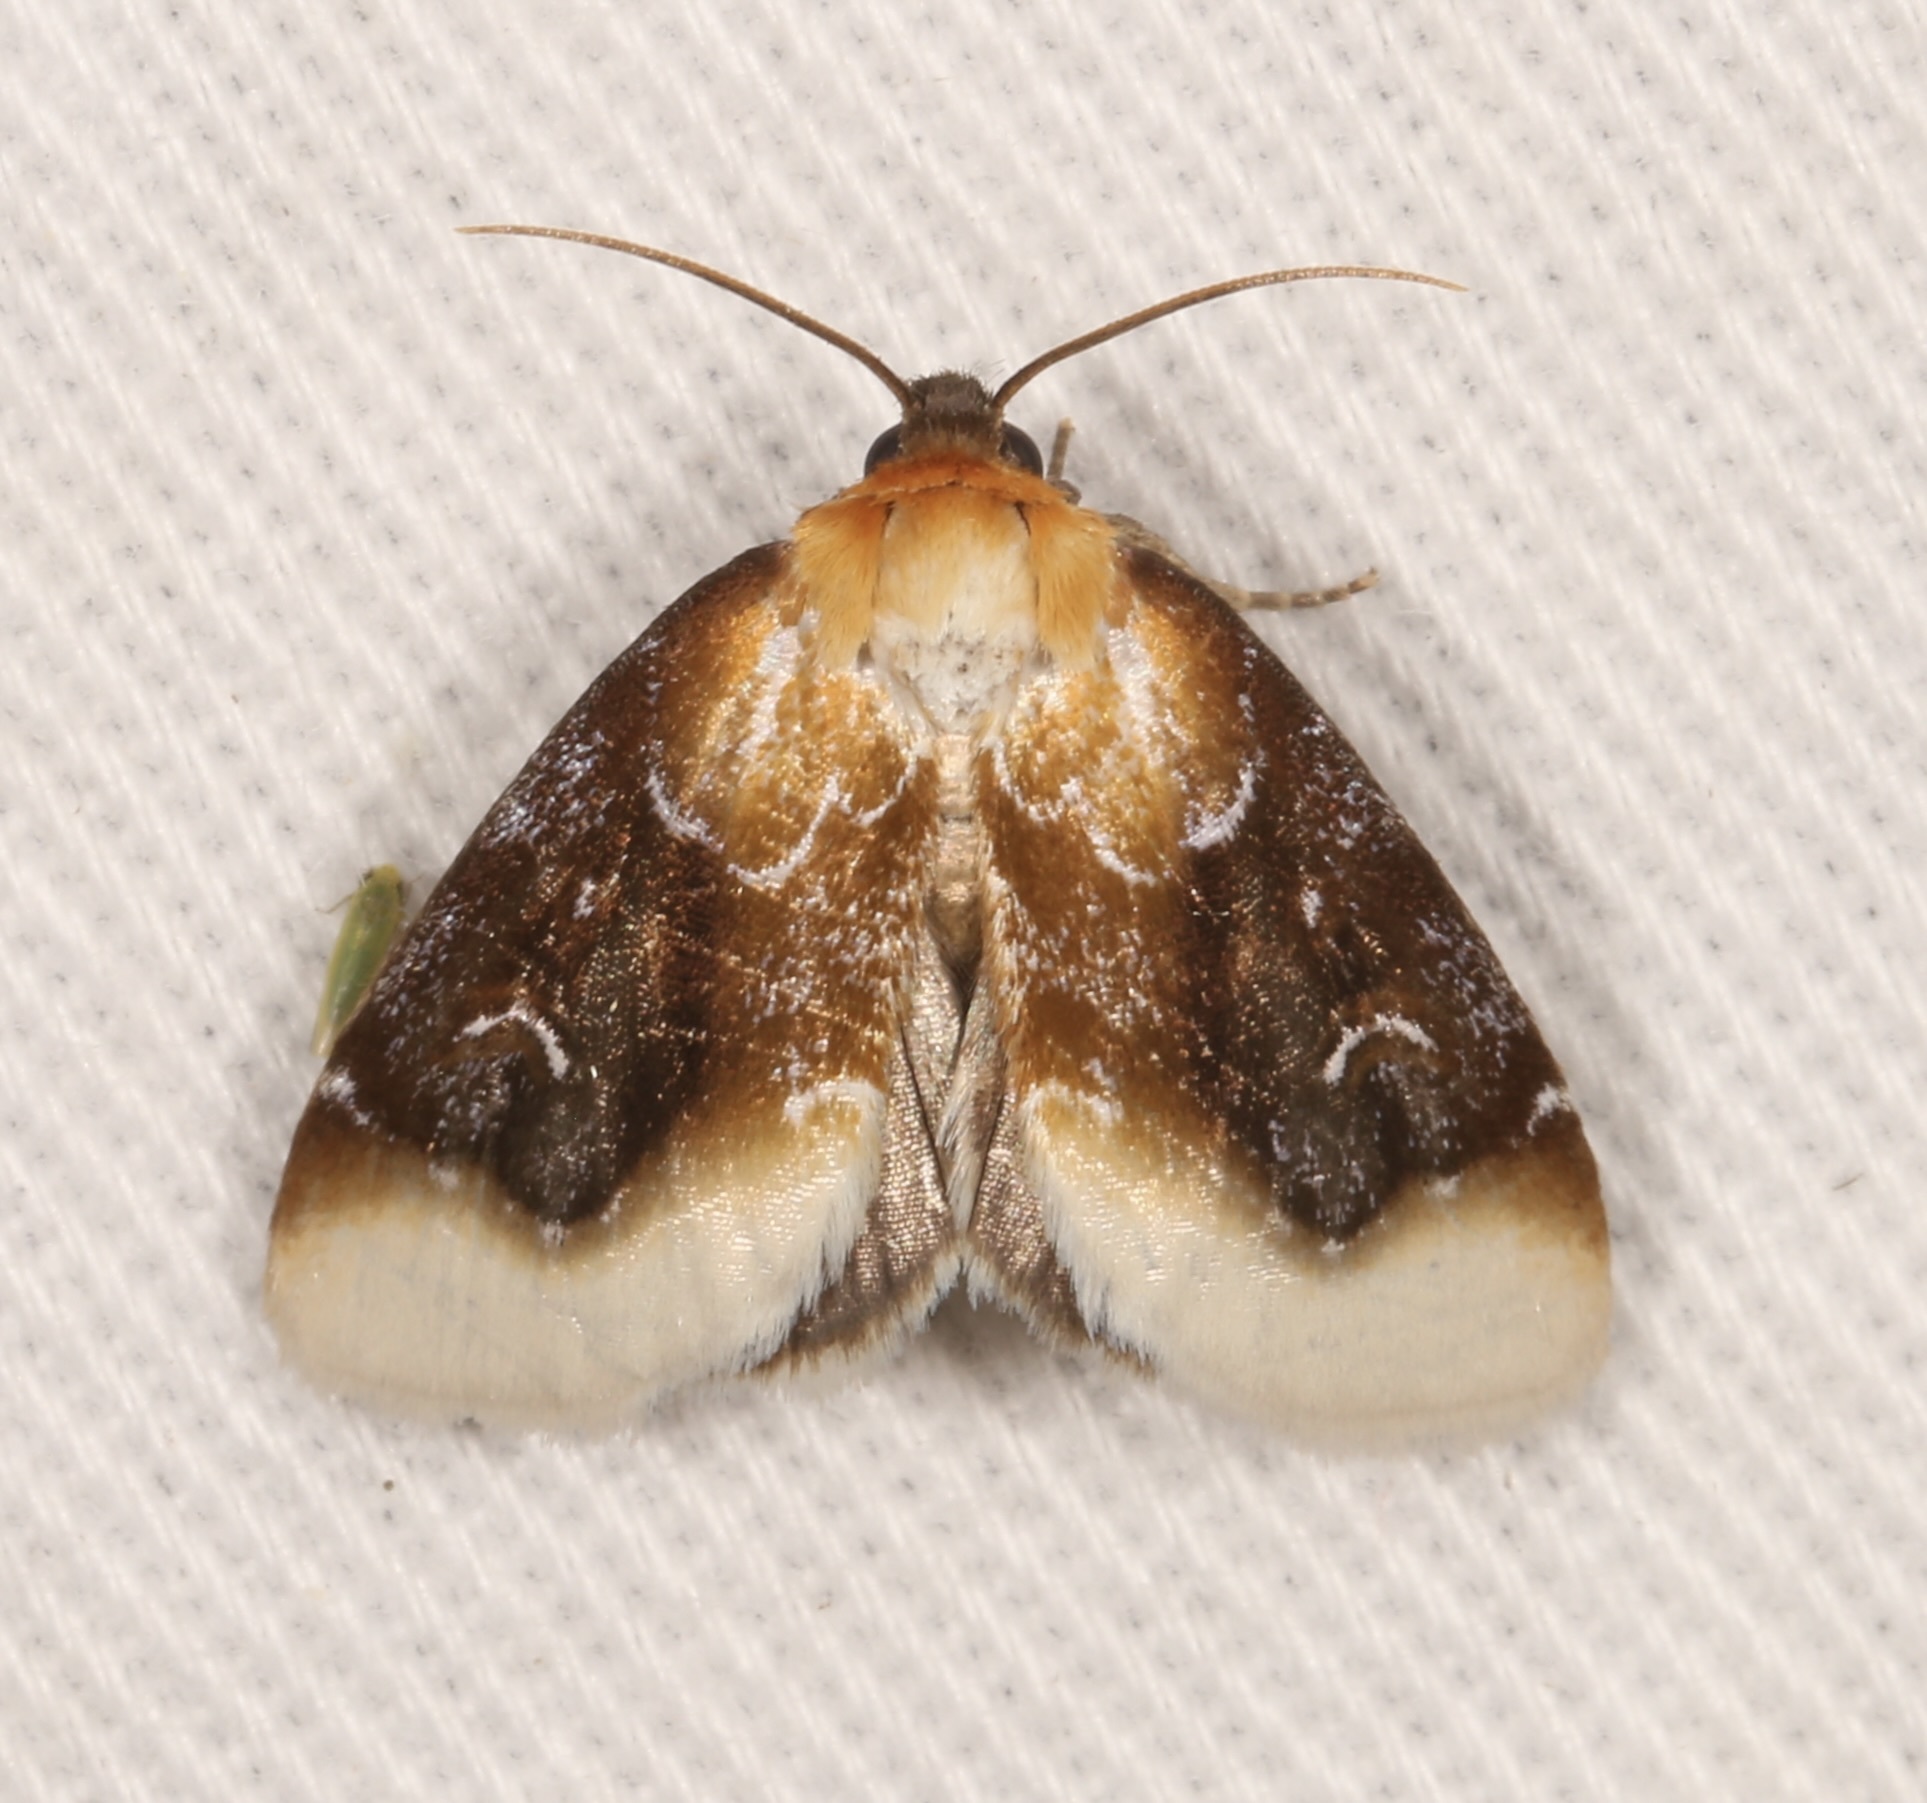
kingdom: Animalia
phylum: Arthropoda
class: Insecta
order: Lepidoptera
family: Noctuidae
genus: Chrysoecia
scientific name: Chrysoecia scira
